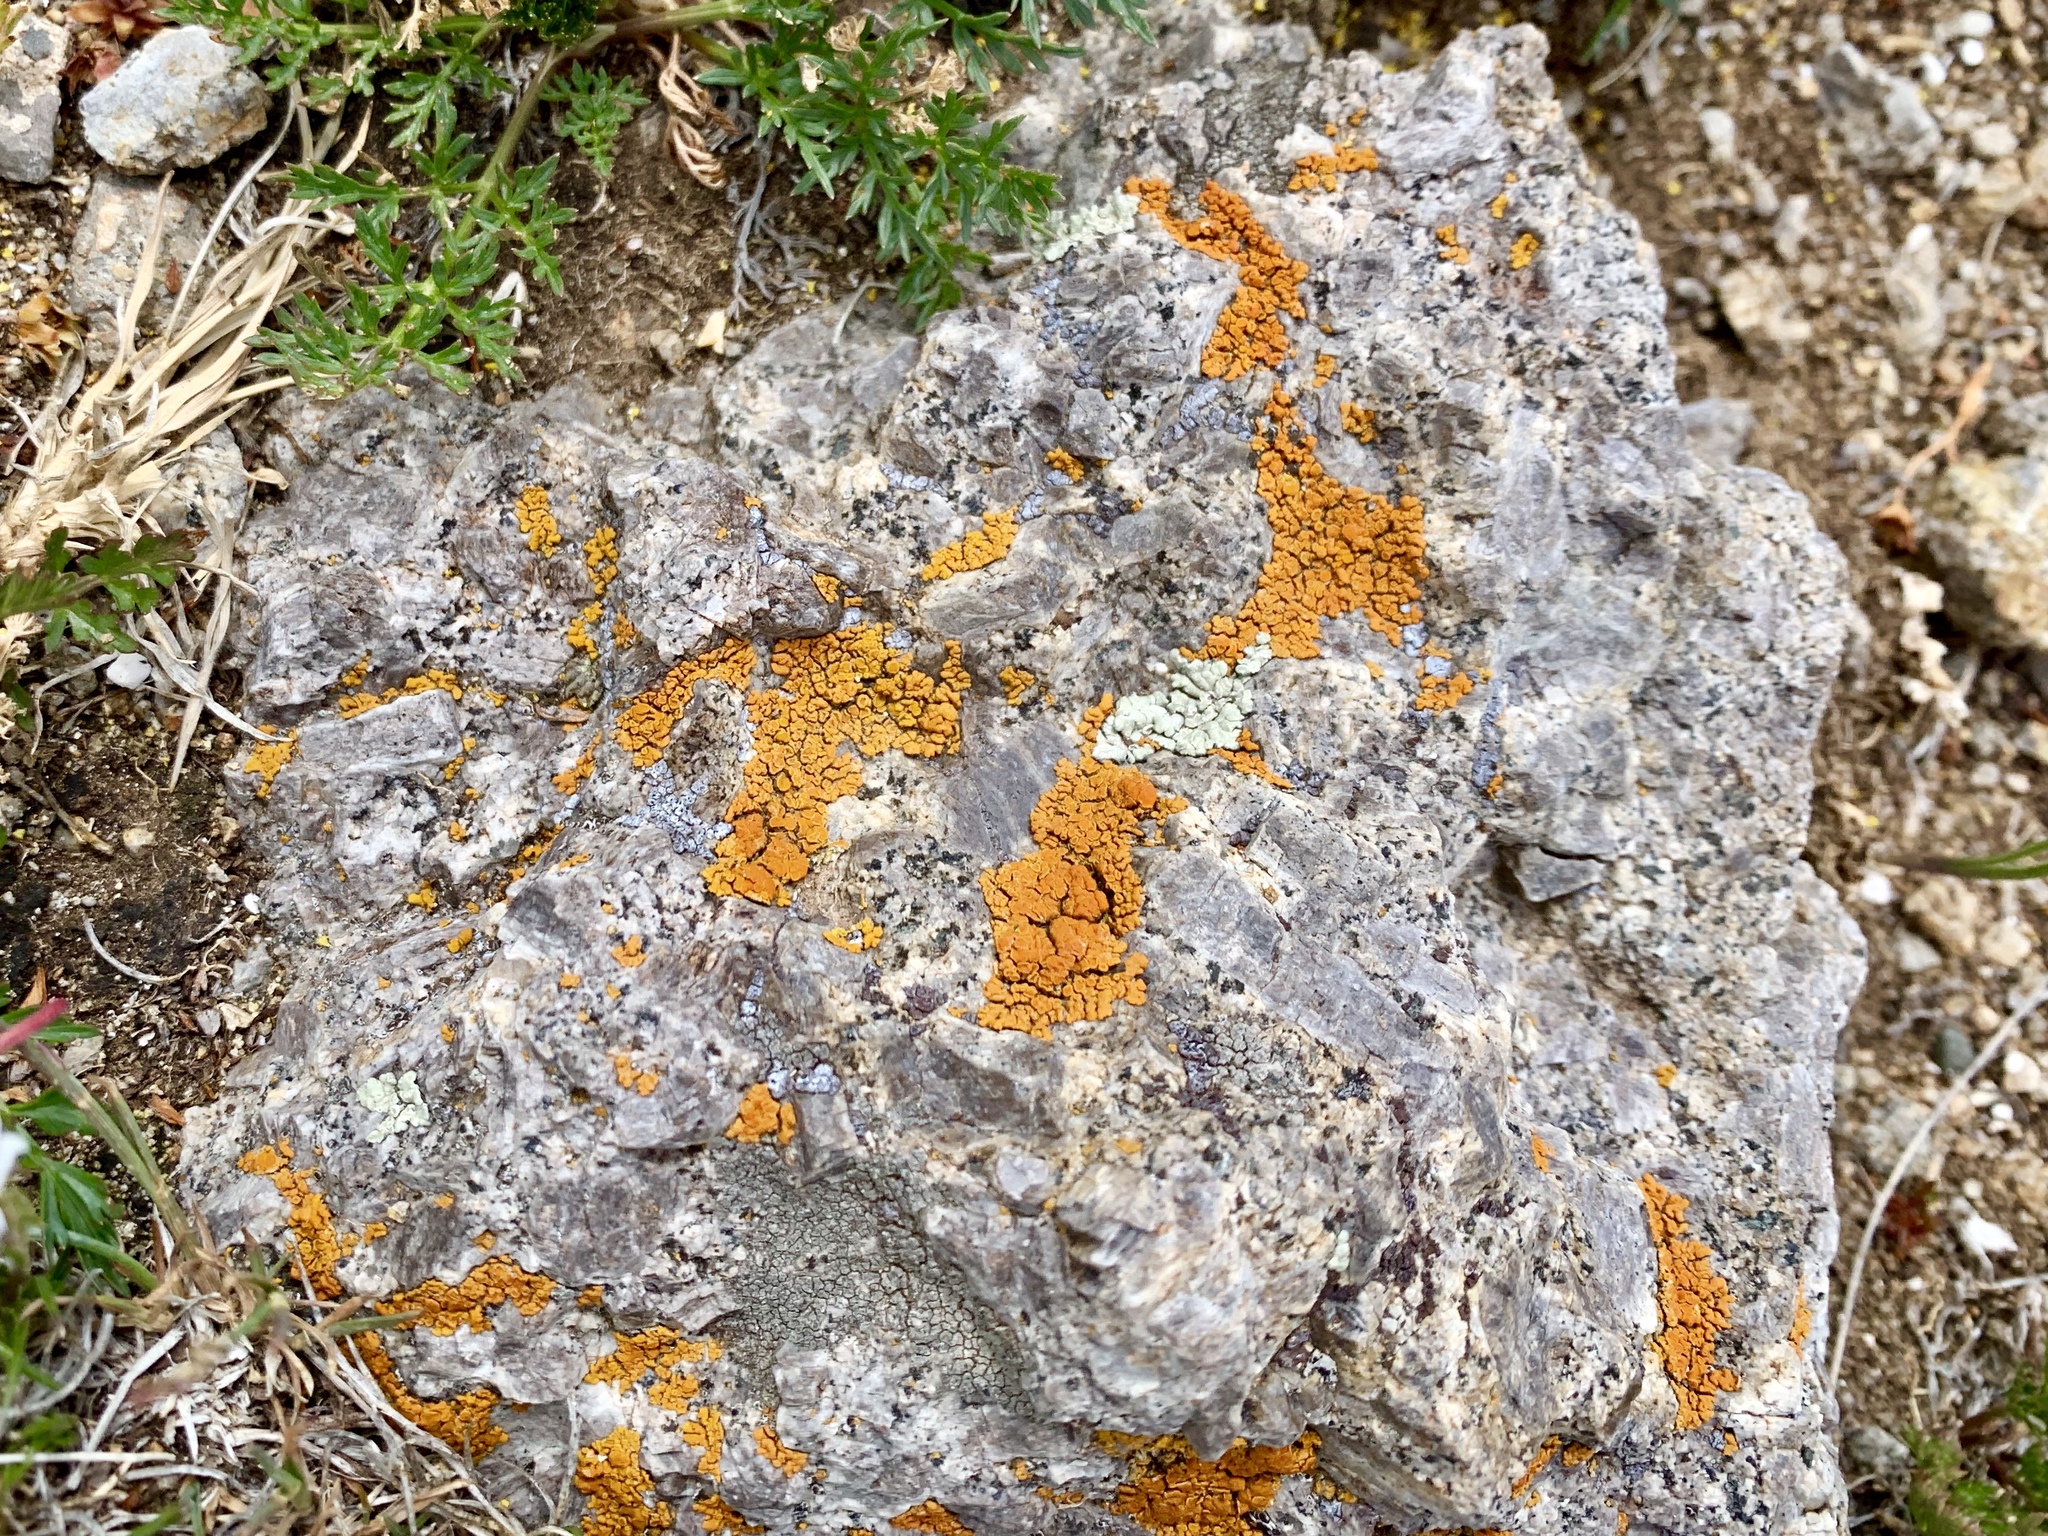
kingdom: Fungi
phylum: Ascomycota
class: Lecanoromycetes
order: Teloschistales
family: Teloschistaceae
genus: Xanthoria
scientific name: Xanthoria elegans
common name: Elegant sunburst lichen
